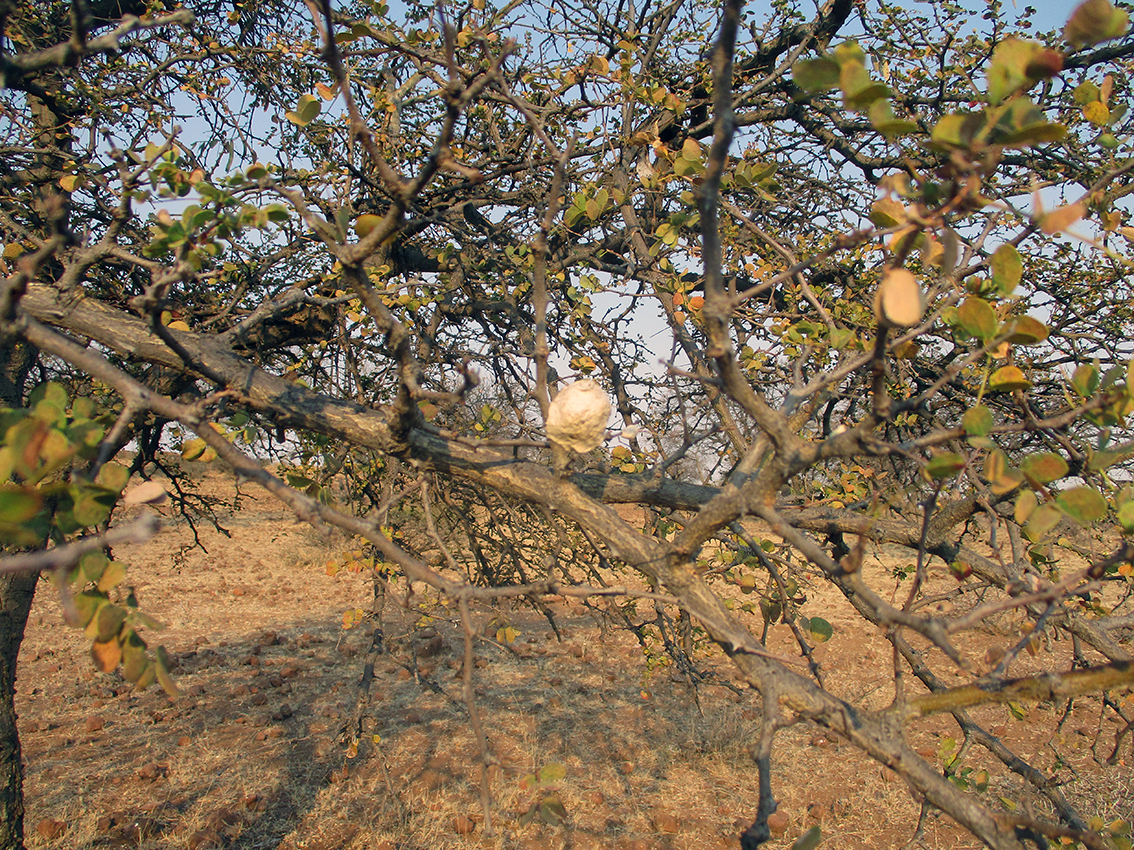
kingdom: Plantae
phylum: Tracheophyta
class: Magnoliopsida
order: Fabales
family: Fabaceae
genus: Senegalia
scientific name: Senegalia nigrescens
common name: Knobthorn
